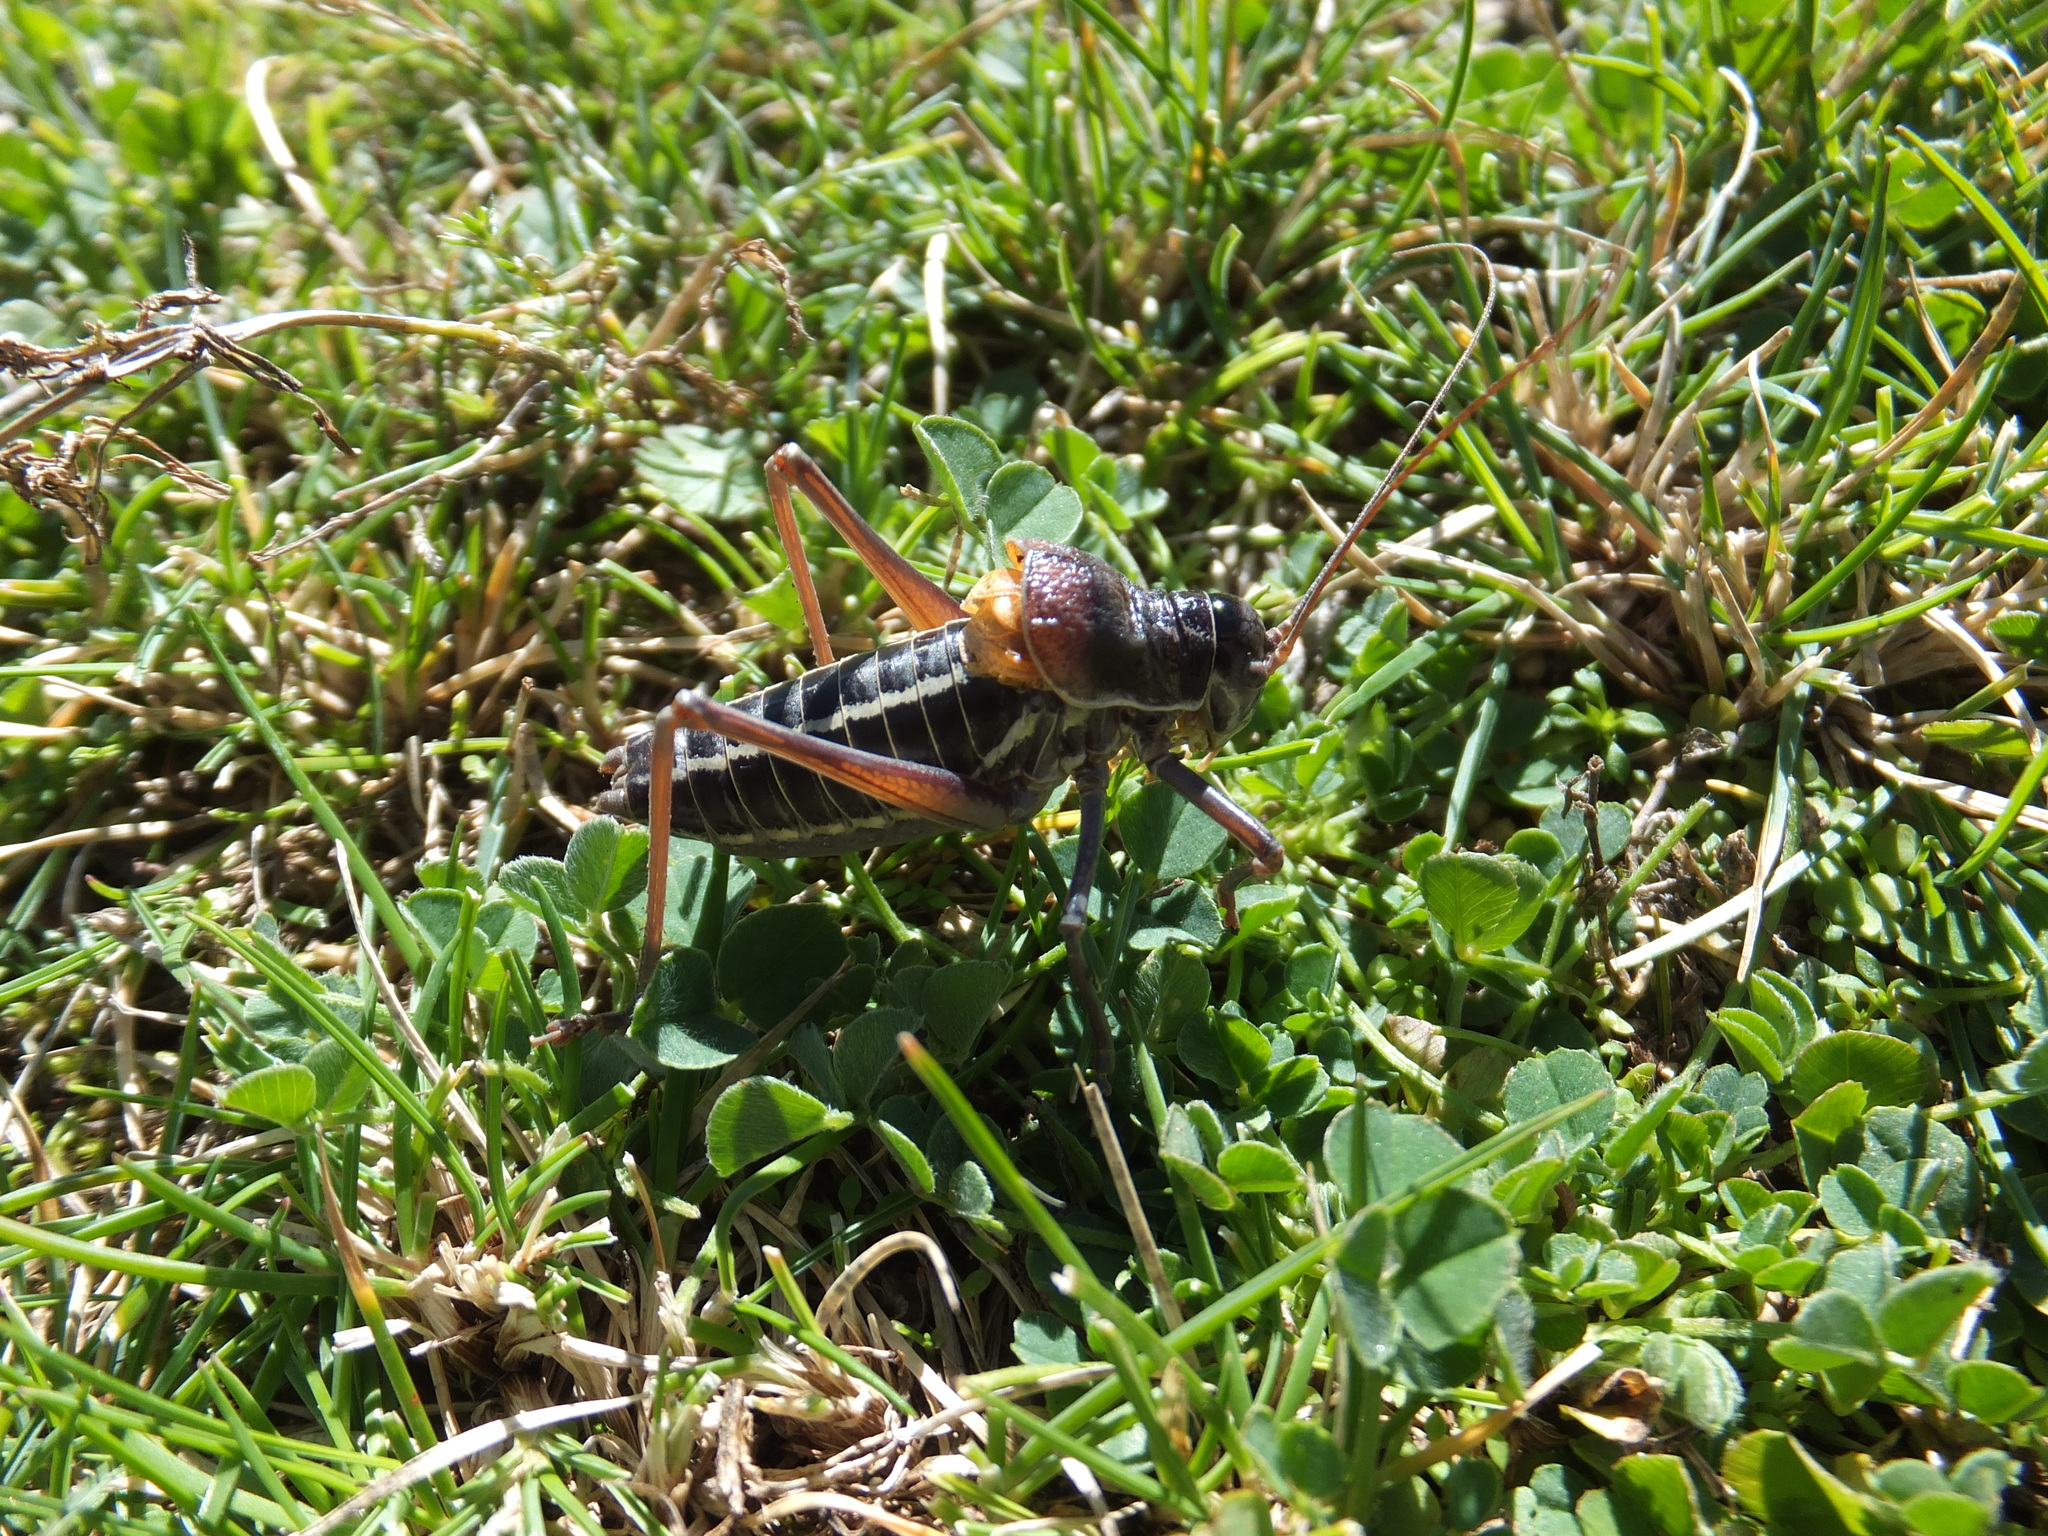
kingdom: Animalia
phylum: Arthropoda
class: Insecta
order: Orthoptera
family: Tettigoniidae
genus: Ephippiger
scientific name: Ephippiger ruffoi
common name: Pygmy saddle bush-cricket
